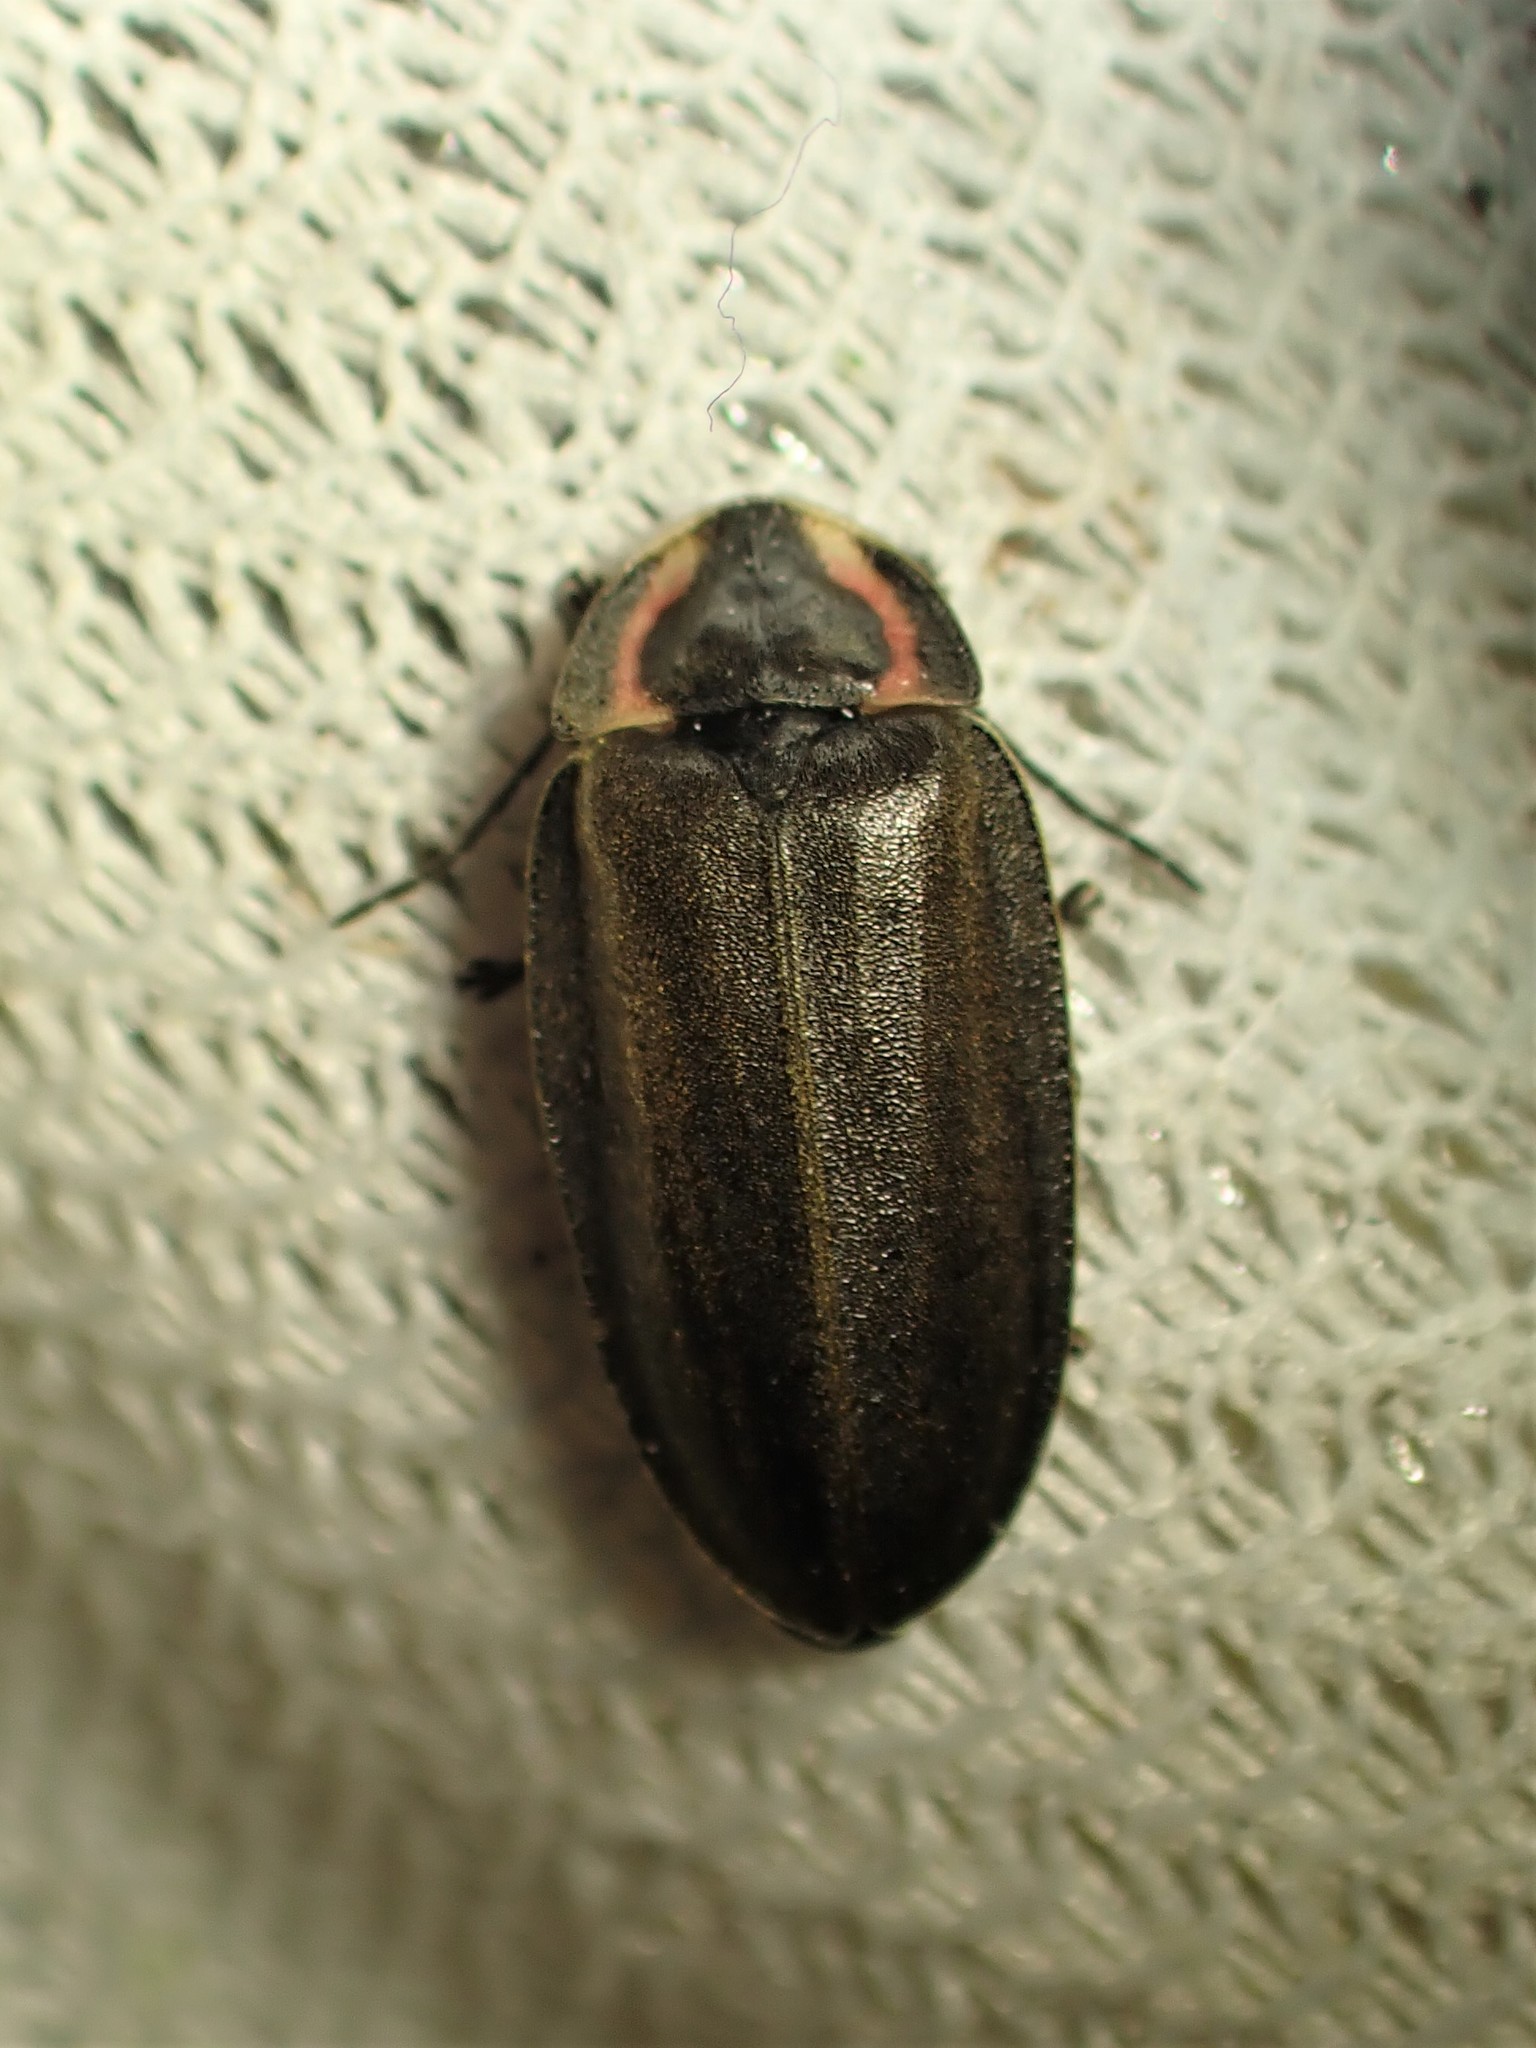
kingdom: Animalia
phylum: Arthropoda
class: Insecta
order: Coleoptera
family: Lampyridae
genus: Photinus
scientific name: Photinus corrusca
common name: Winter firefly
